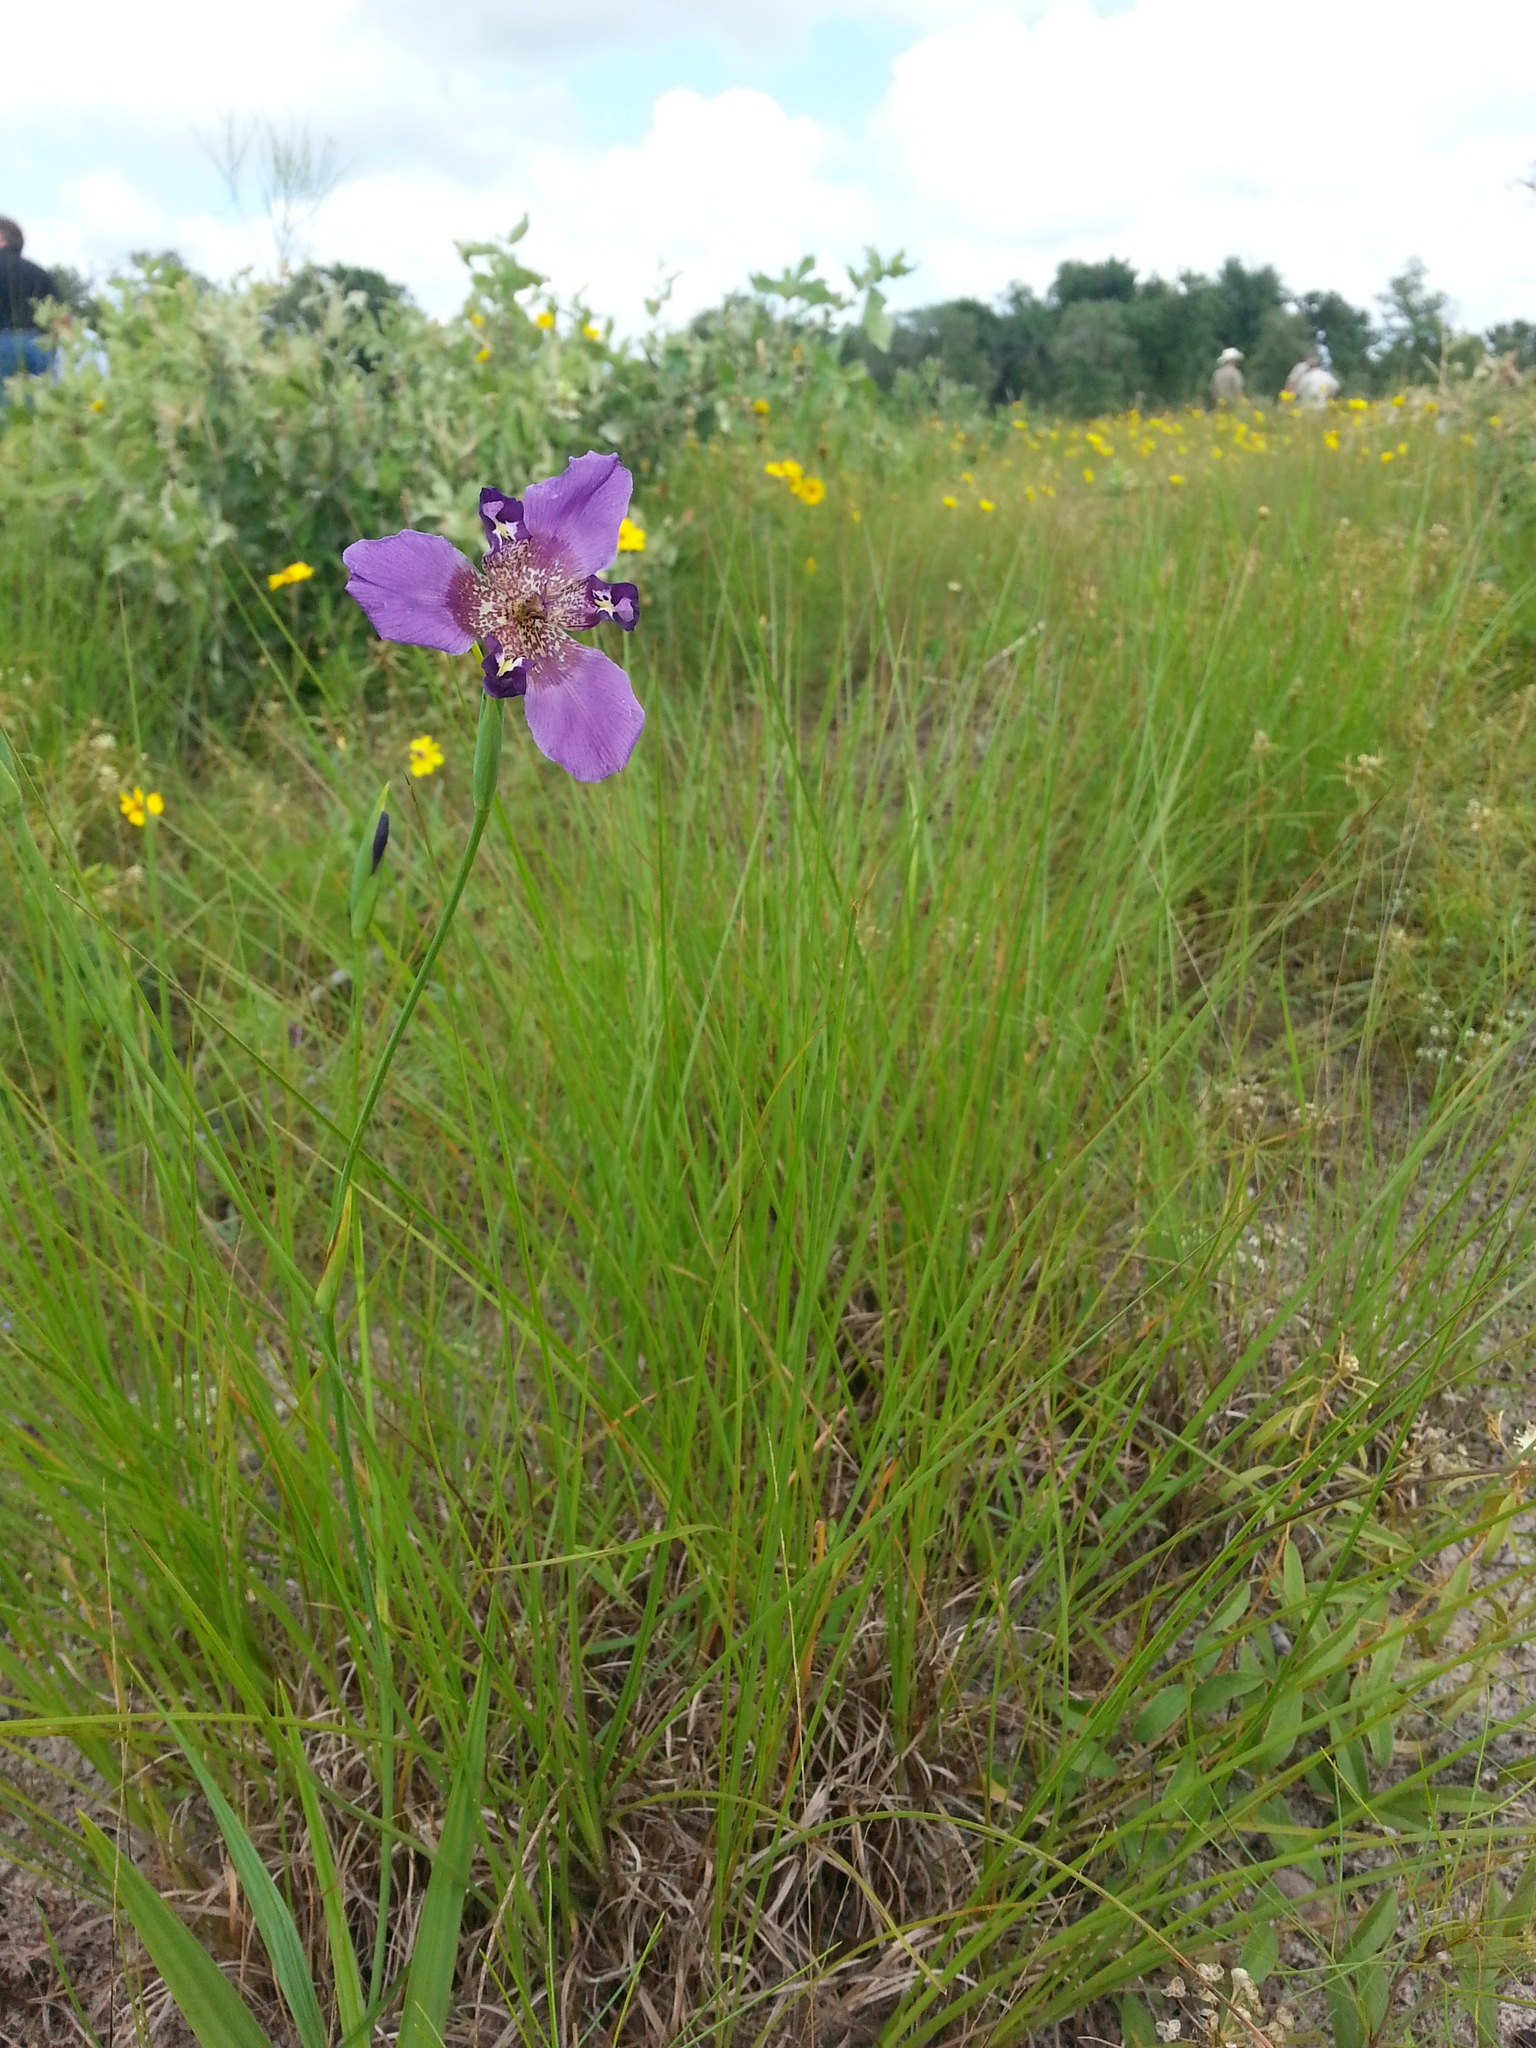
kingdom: Plantae
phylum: Tracheophyta
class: Liliopsida
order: Asparagales
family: Iridaceae
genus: Alophia
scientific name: Alophia drummondii
